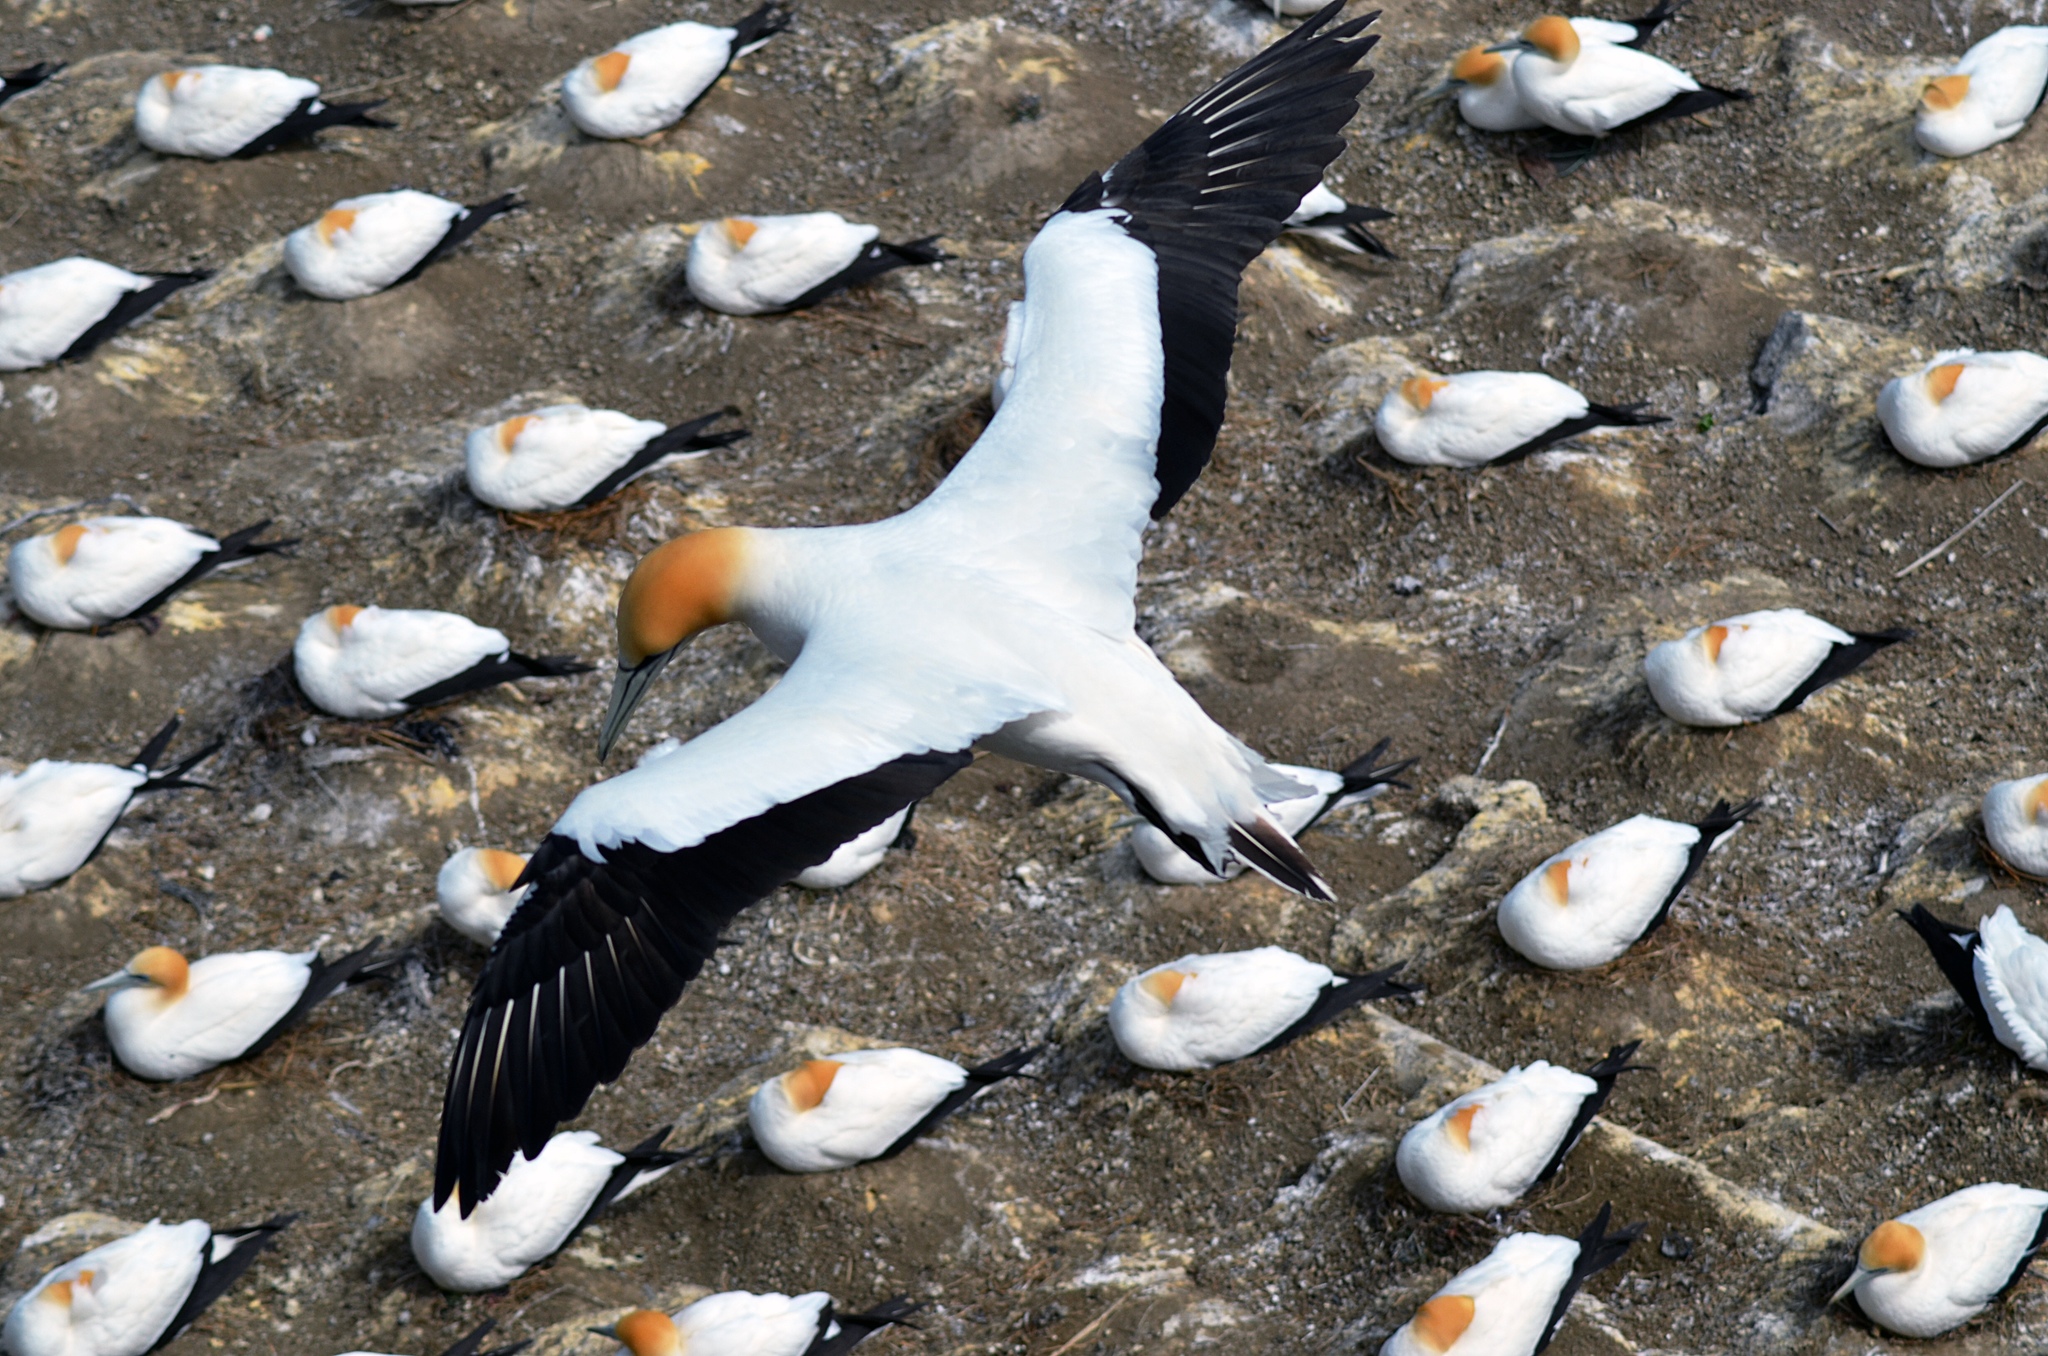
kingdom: Animalia
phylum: Chordata
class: Aves
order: Suliformes
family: Sulidae
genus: Morus
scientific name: Morus serrator
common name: Australasian gannet
